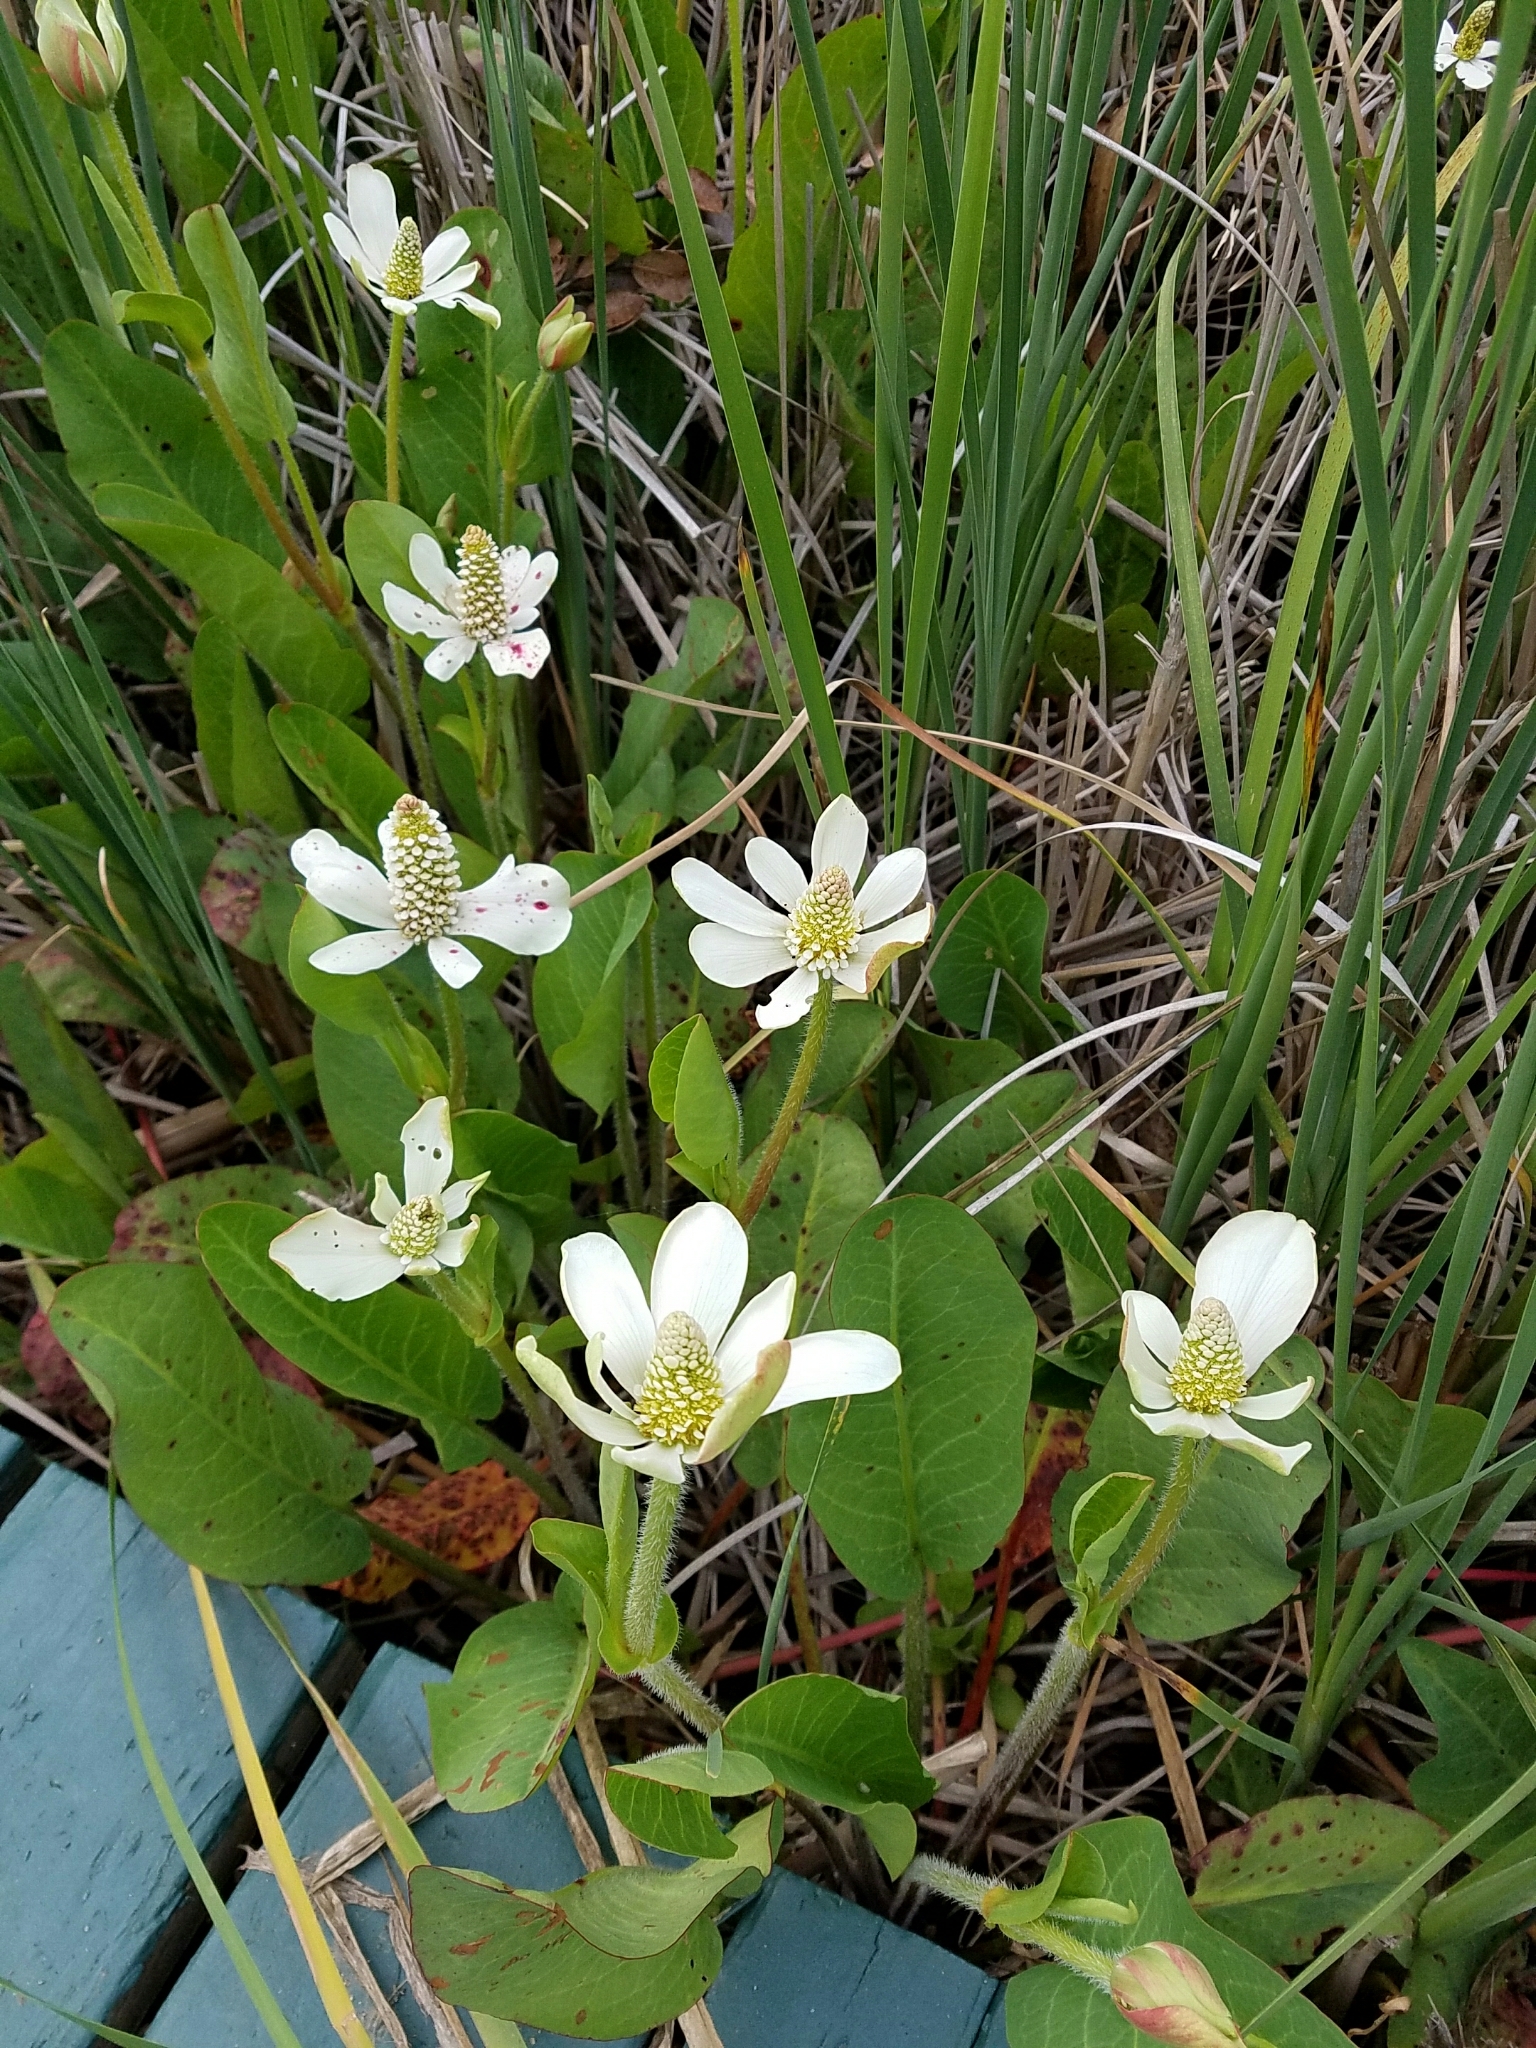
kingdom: Plantae
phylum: Tracheophyta
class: Magnoliopsida
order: Piperales
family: Saururaceae
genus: Anemopsis
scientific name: Anemopsis californica
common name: Apache-beads
